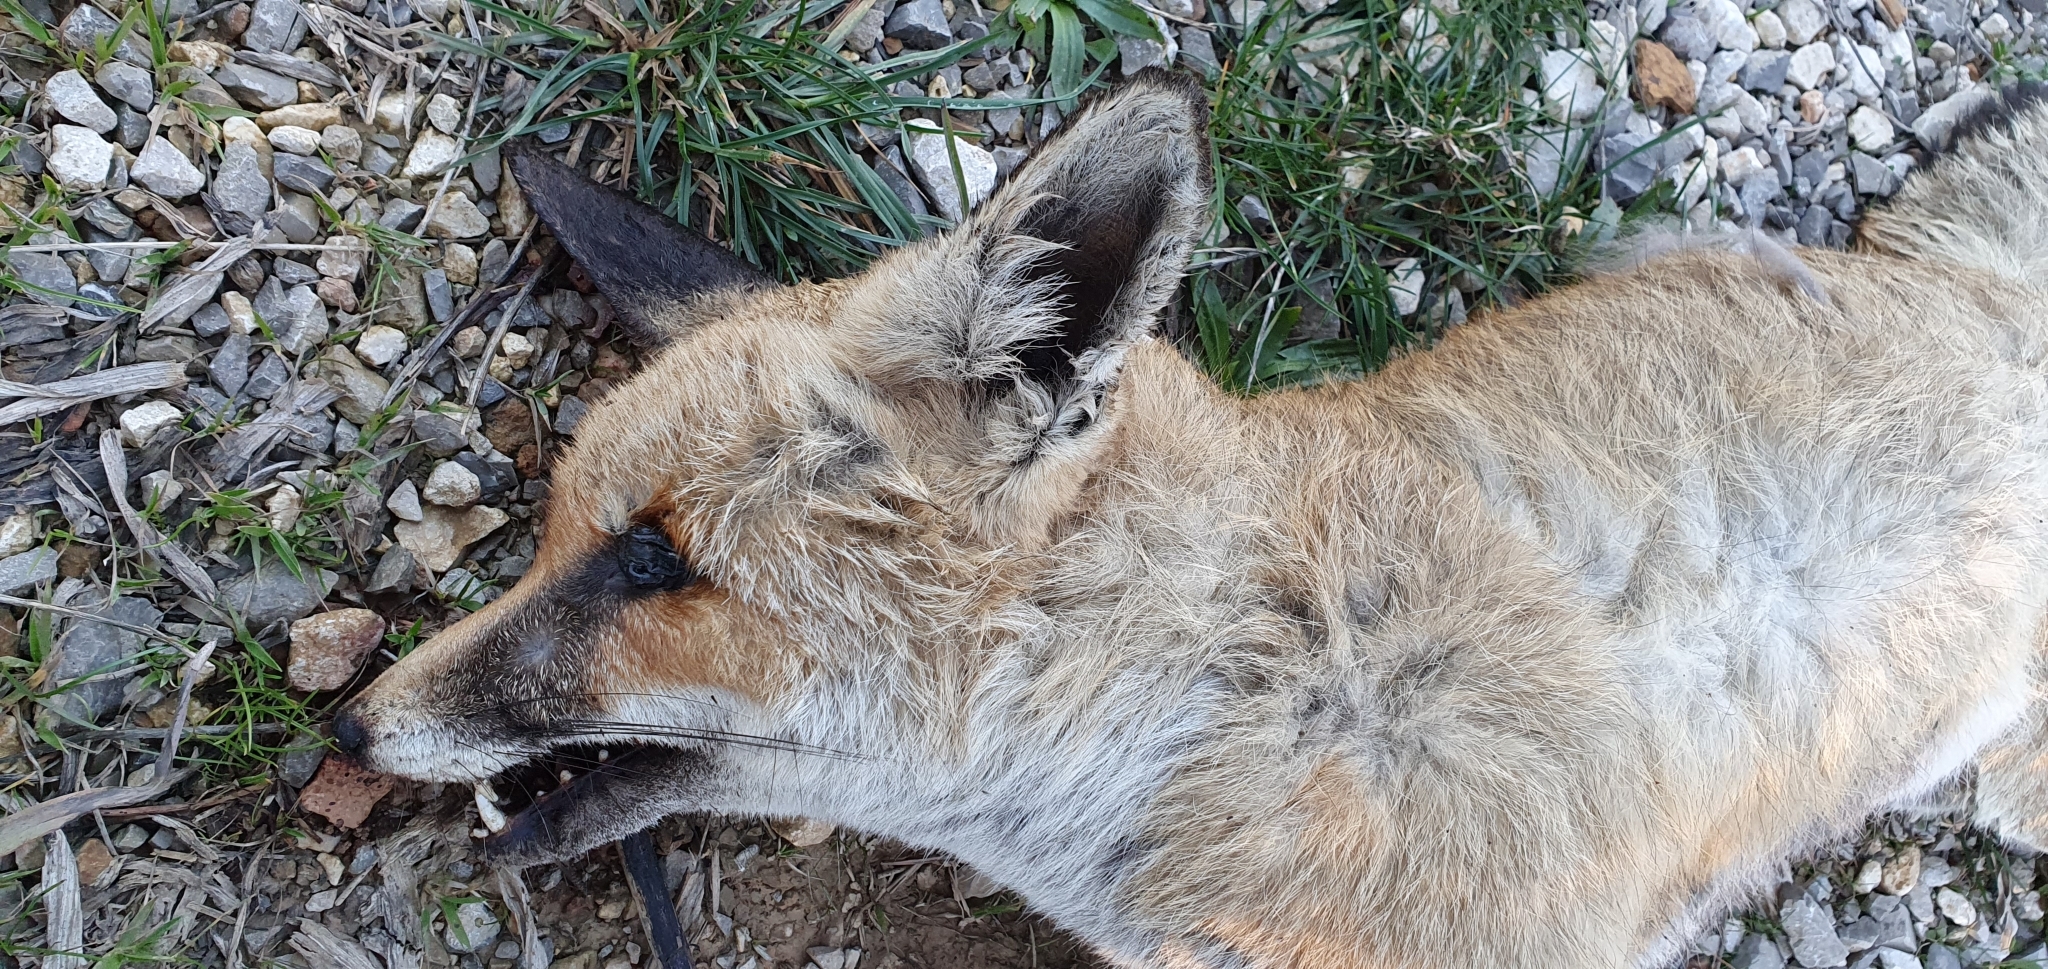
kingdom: Animalia
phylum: Chordata
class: Mammalia
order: Carnivora
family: Canidae
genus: Vulpes
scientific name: Vulpes vulpes
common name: Red fox
